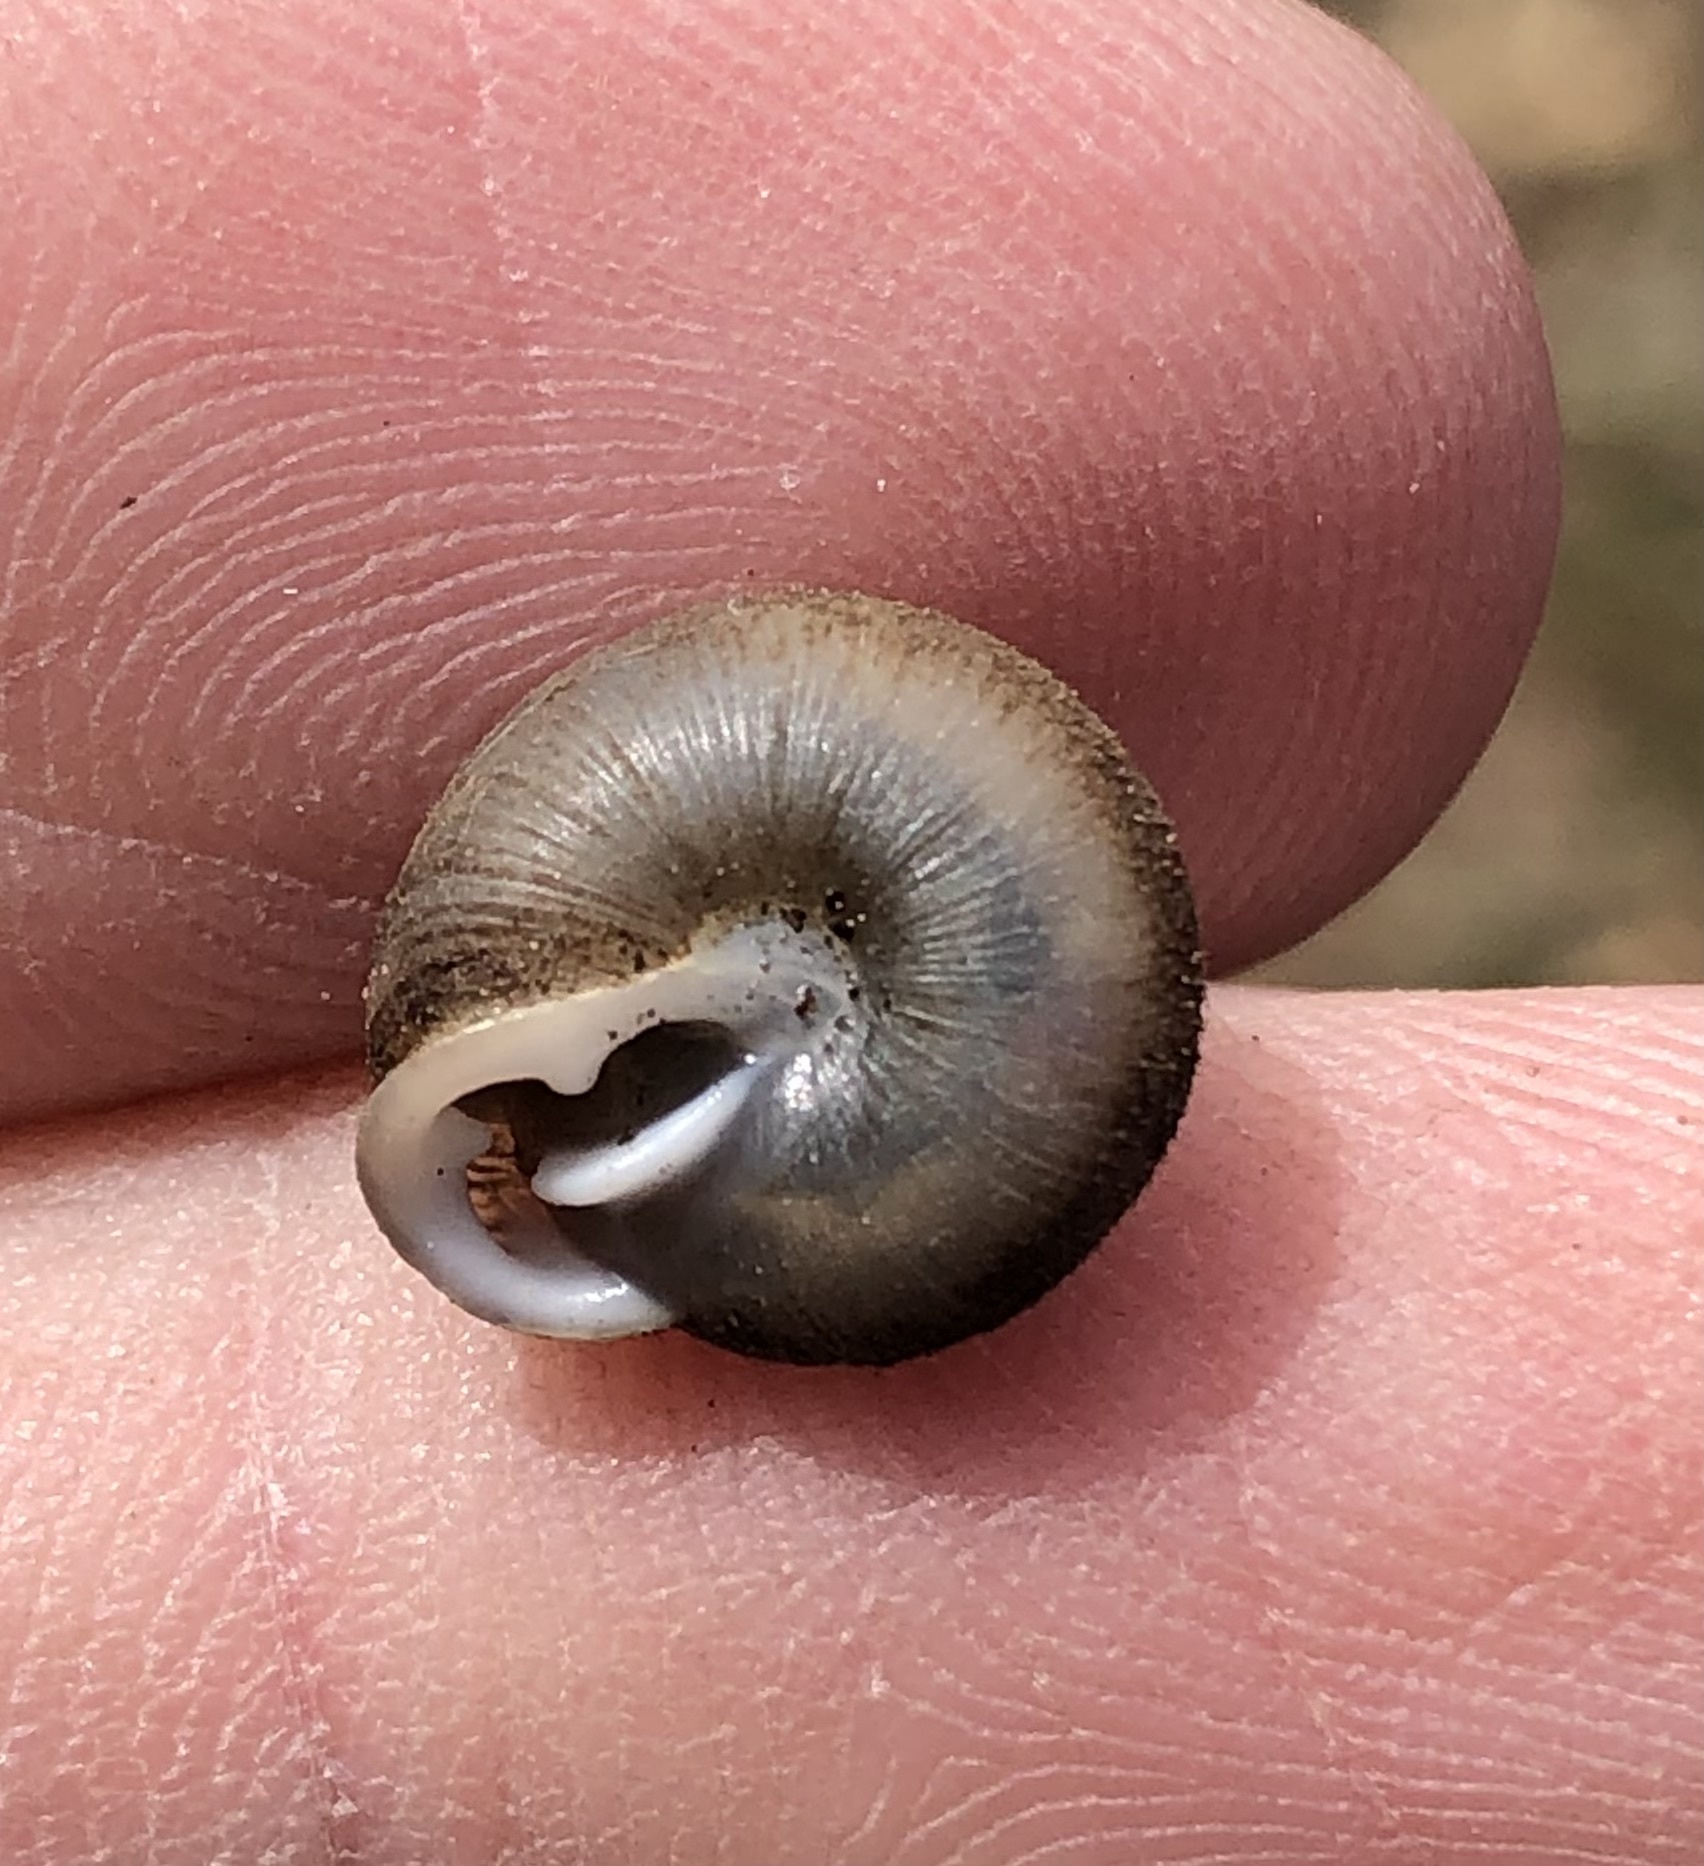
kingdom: Animalia
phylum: Mollusca
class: Gastropoda
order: Stylommatophora
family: Polygyridae
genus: Triodopsis
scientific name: Triodopsis cragini
